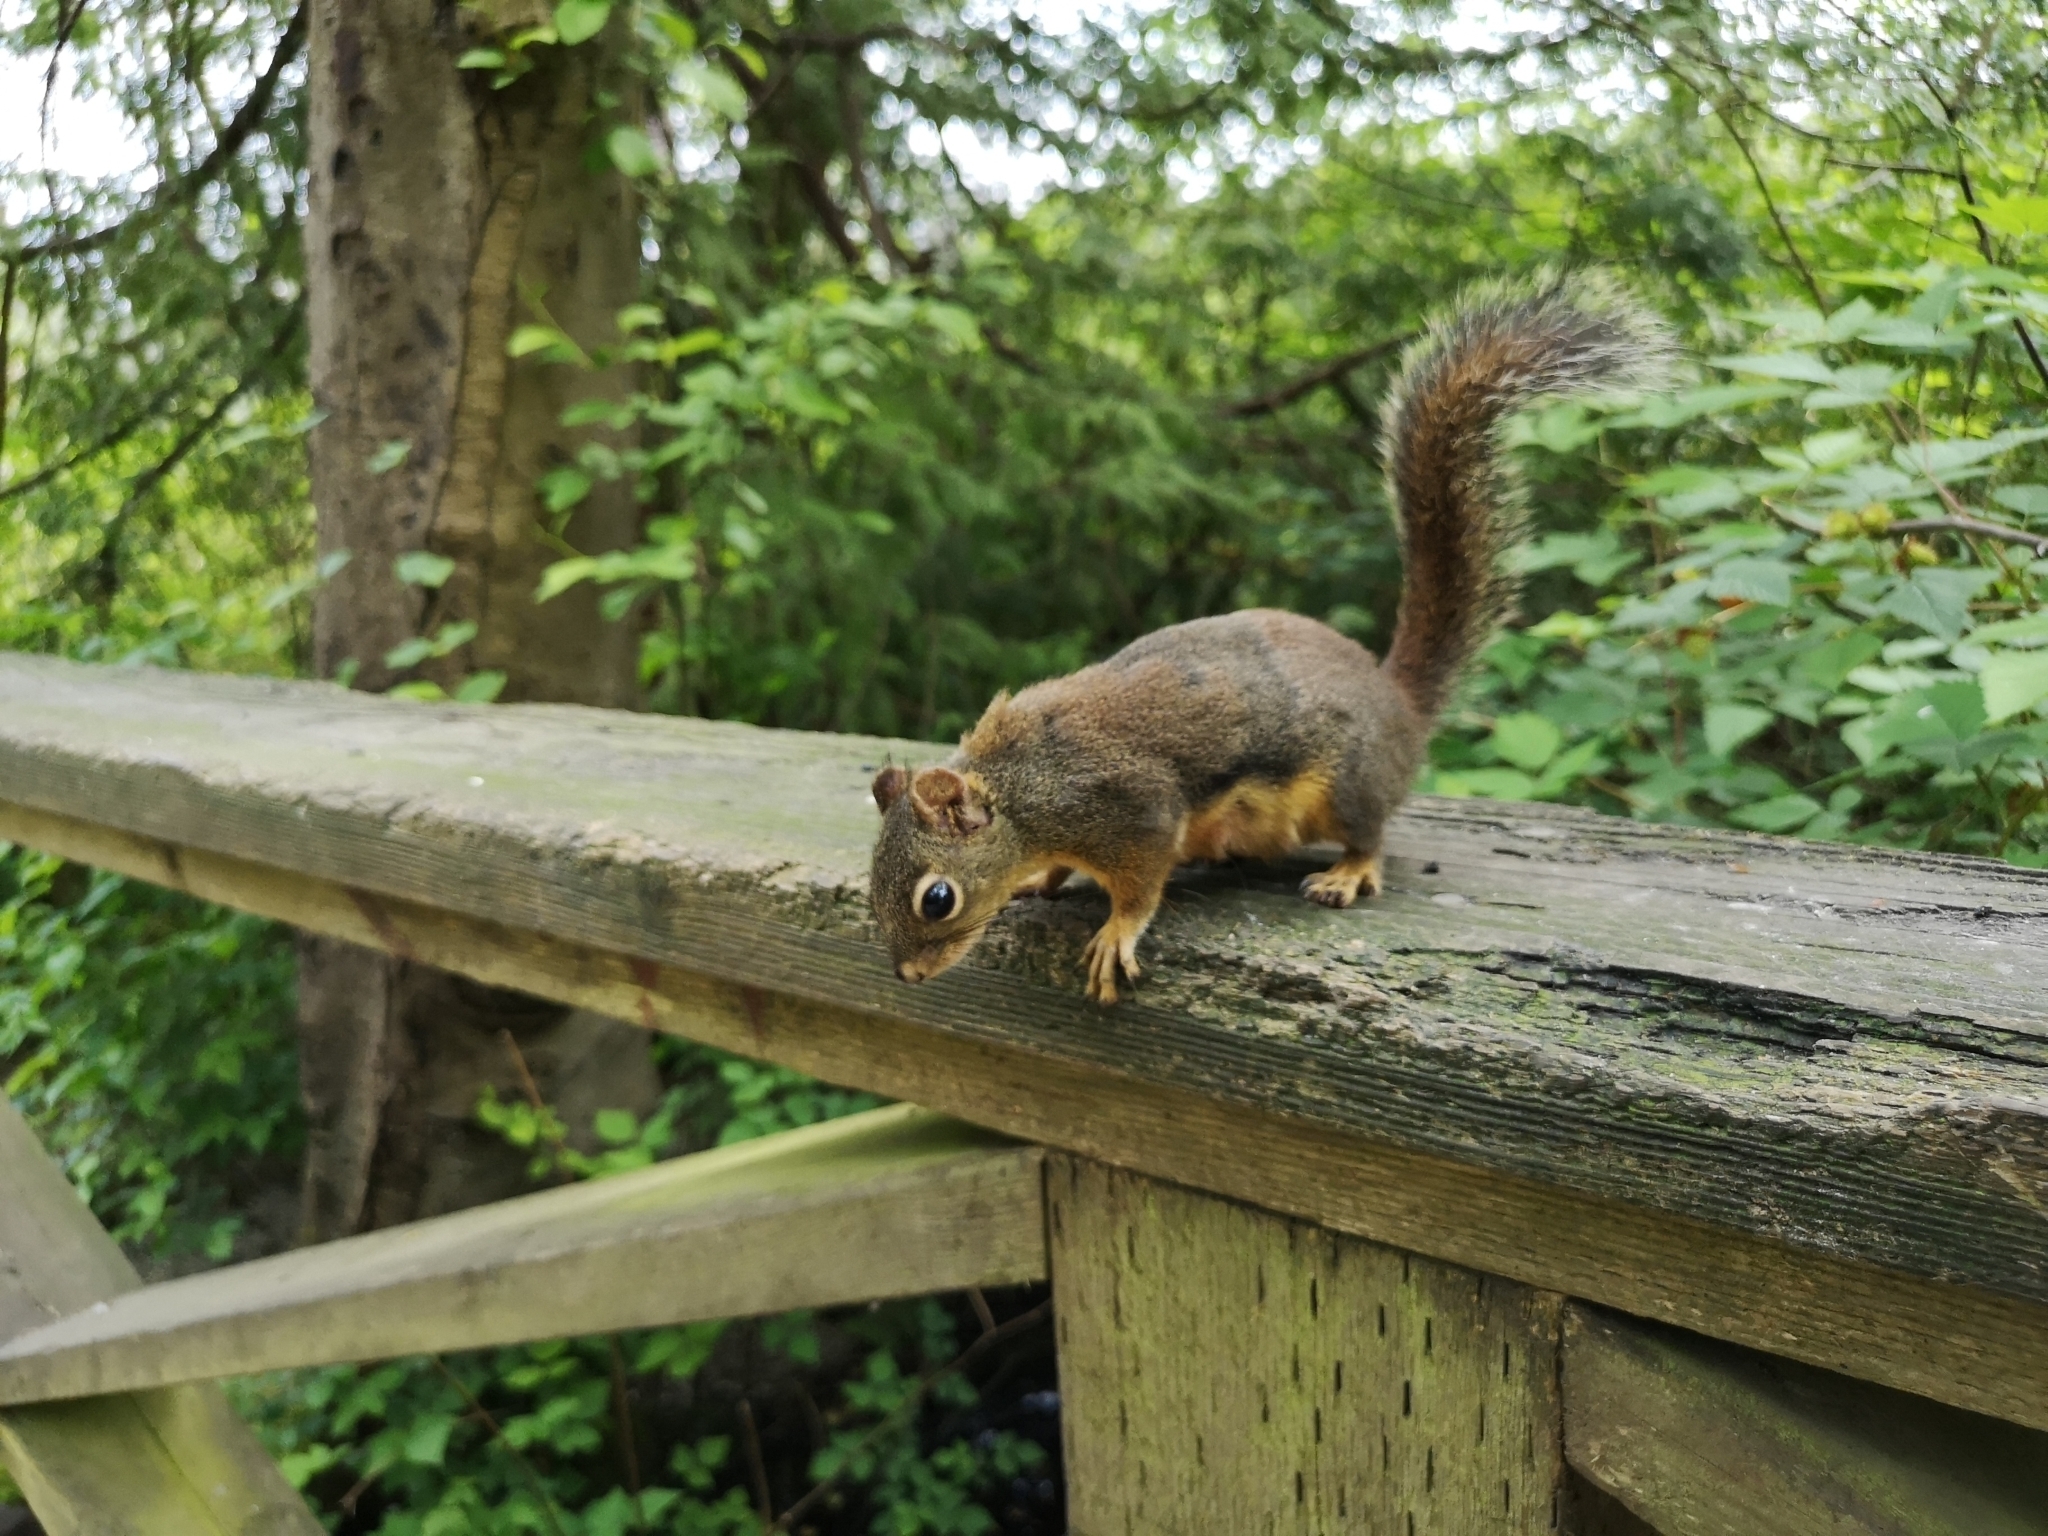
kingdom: Animalia
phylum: Chordata
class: Mammalia
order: Rodentia
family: Sciuridae
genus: Tamiasciurus
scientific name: Tamiasciurus douglasii
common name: Douglas's squirrel
